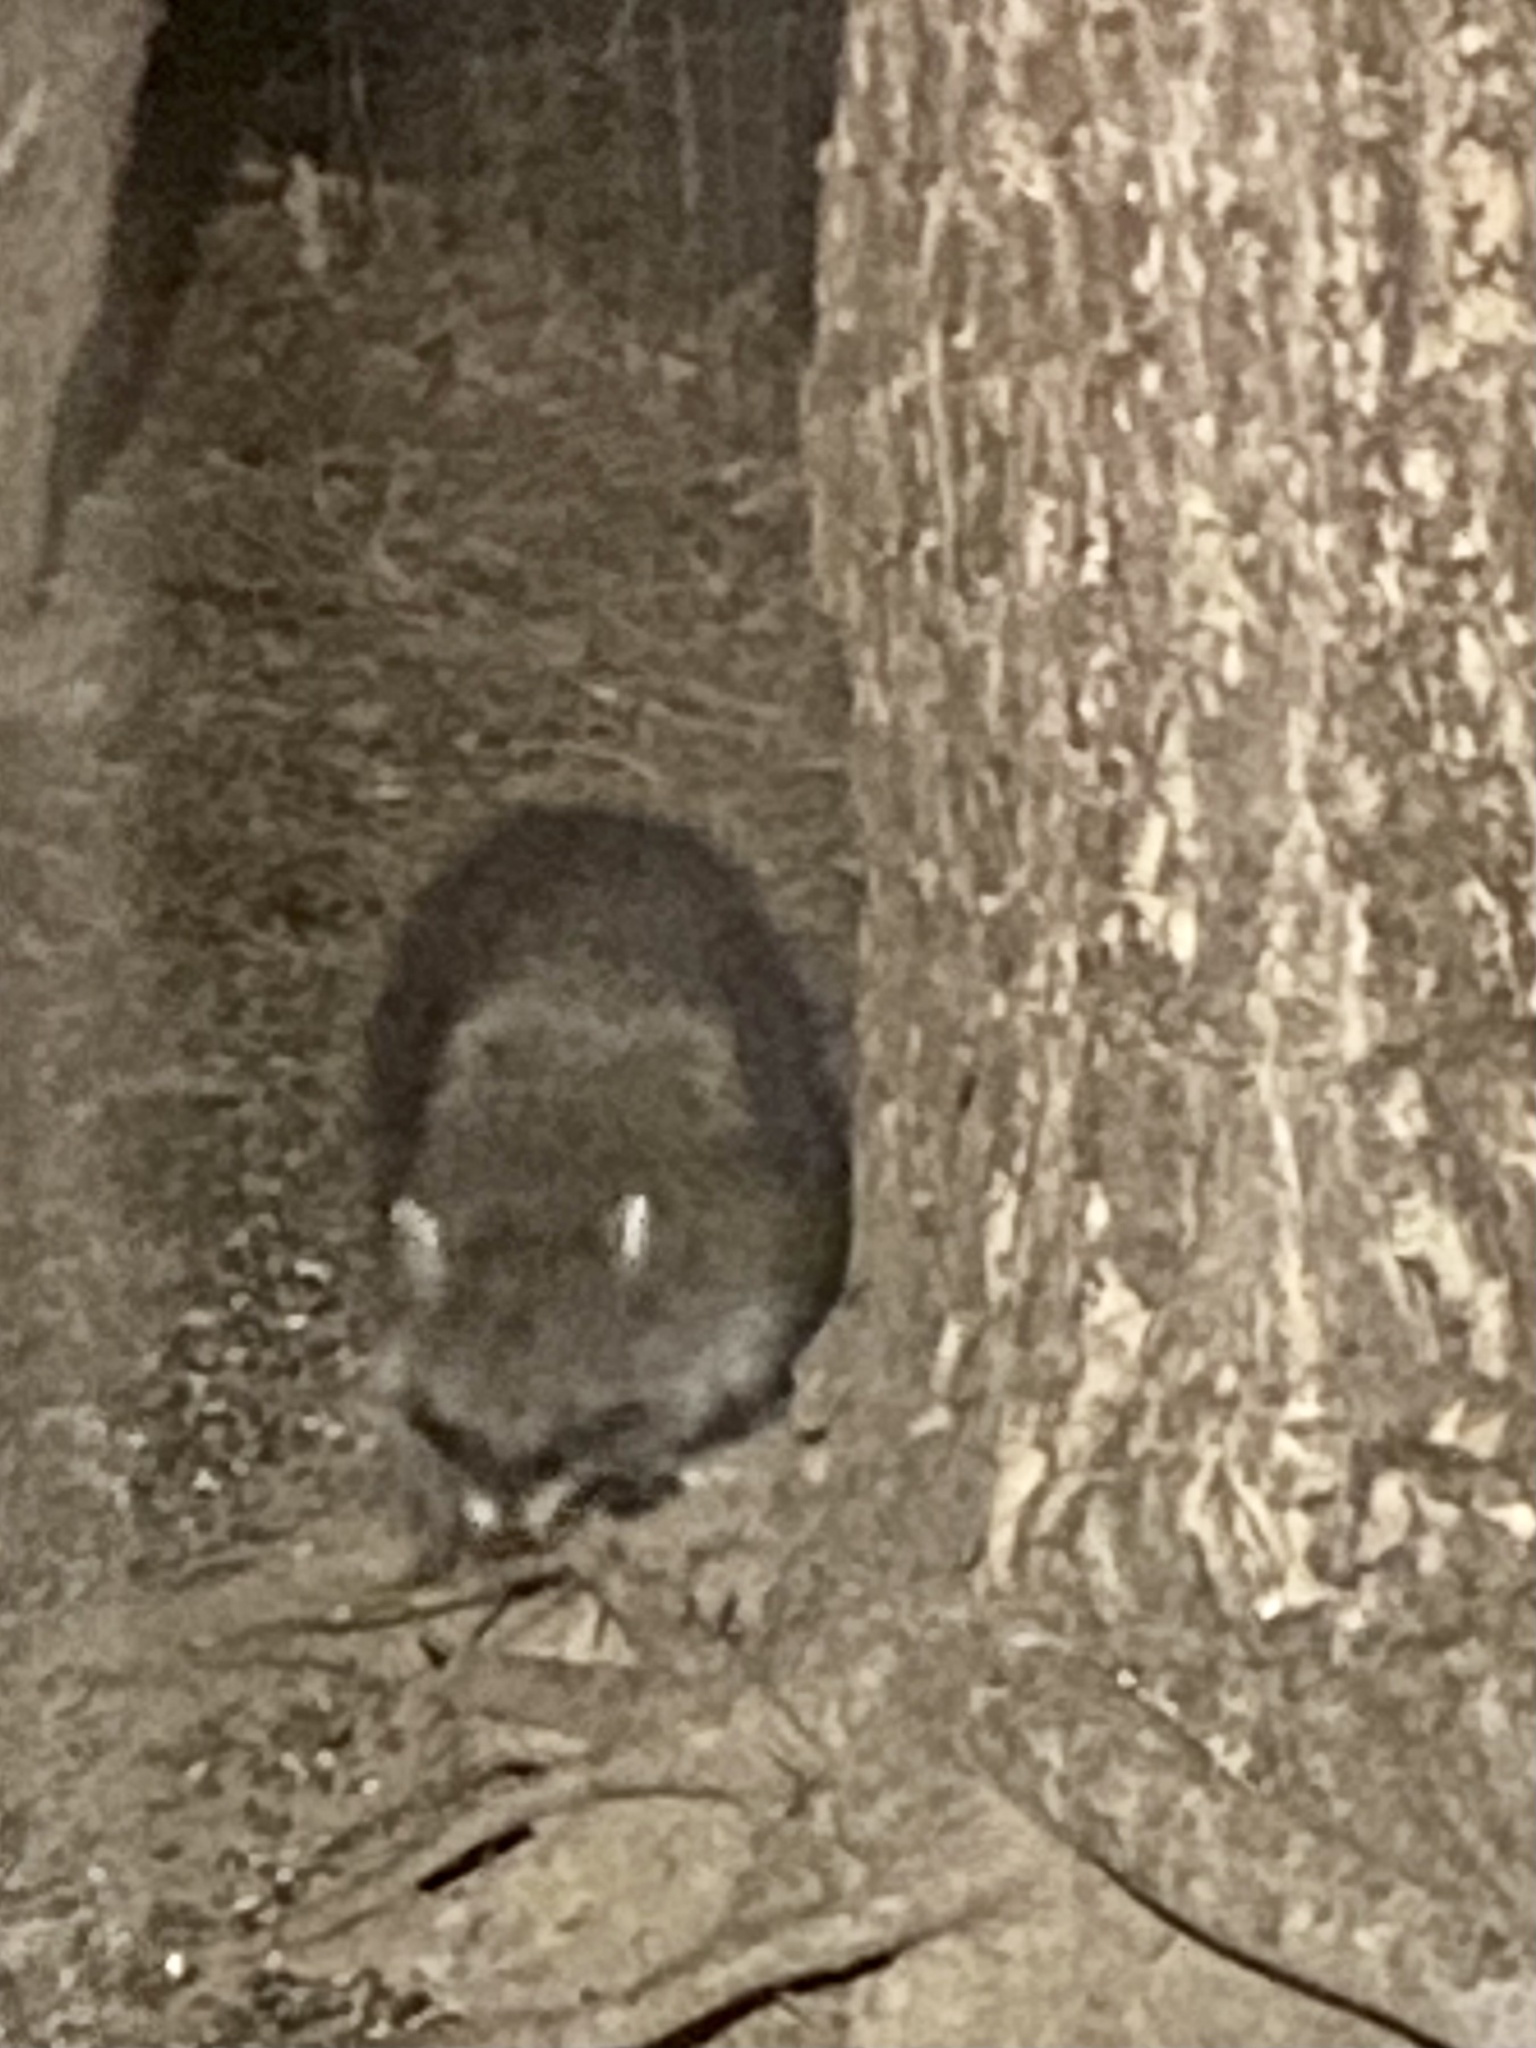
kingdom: Animalia
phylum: Chordata
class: Mammalia
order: Carnivora
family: Procyonidae
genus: Procyon
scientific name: Procyon lotor
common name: Raccoon
